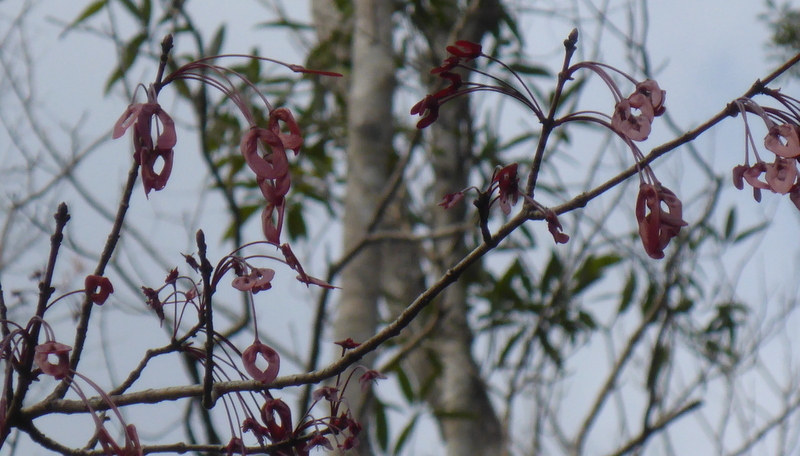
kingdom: Plantae
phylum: Tracheophyta
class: Magnoliopsida
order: Sapindales
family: Sapindaceae
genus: Acer
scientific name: Acer rubrum
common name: Red maple
